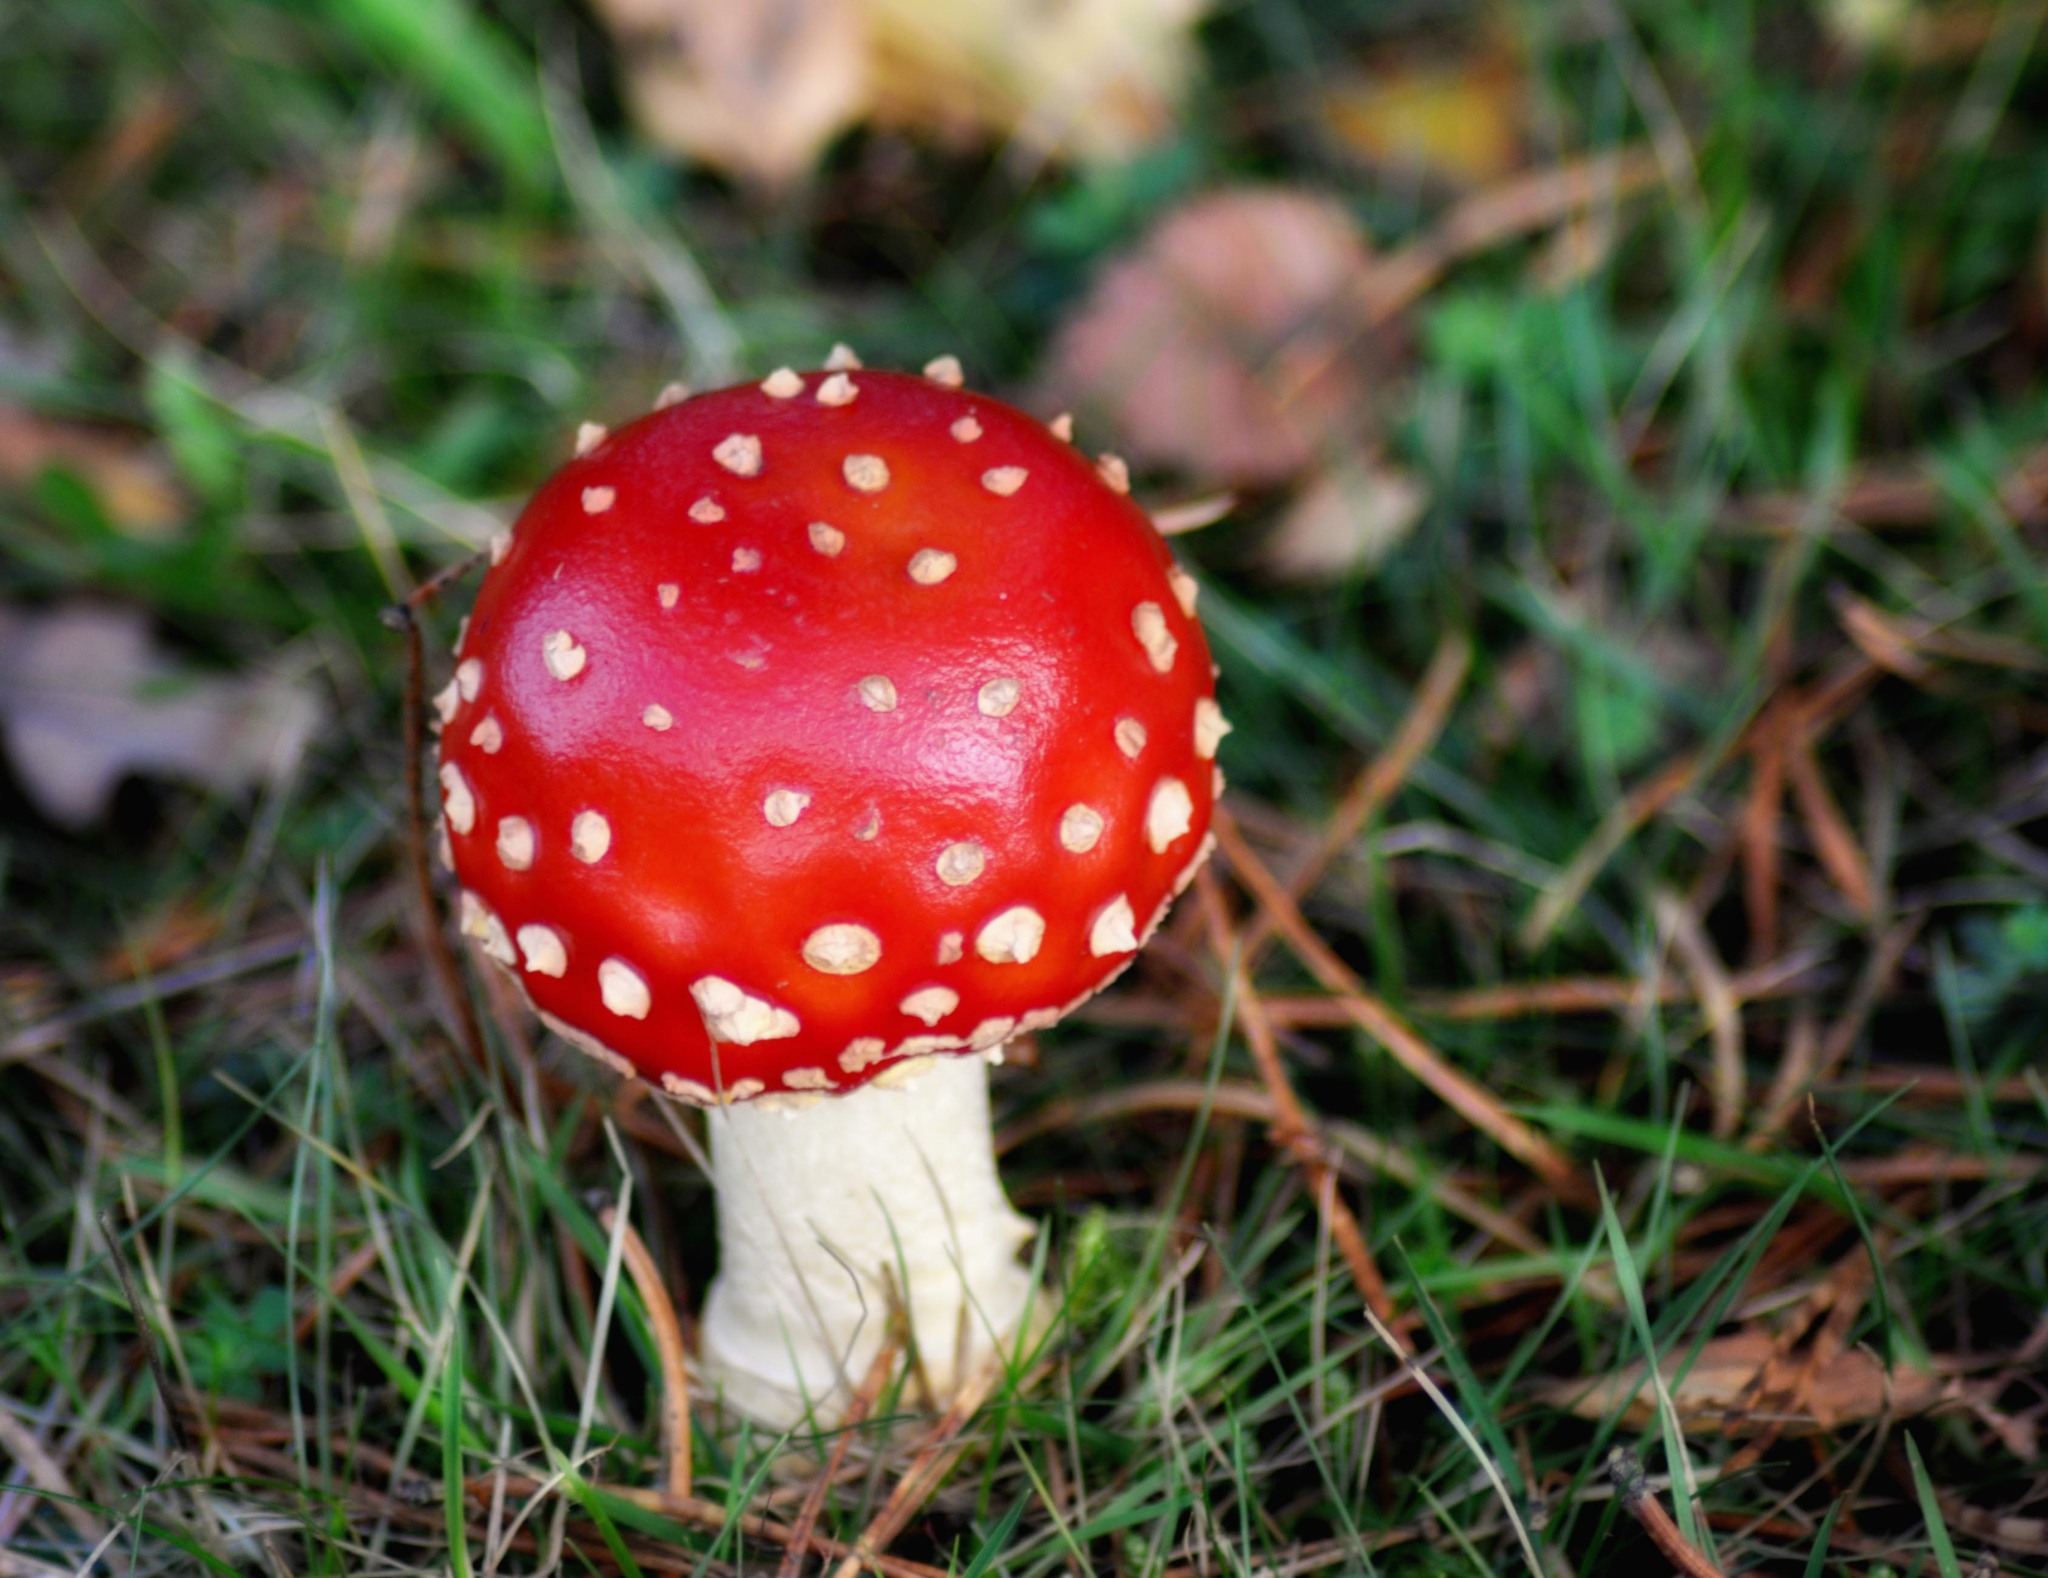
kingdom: Fungi
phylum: Basidiomycota
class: Agaricomycetes
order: Agaricales
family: Amanitaceae
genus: Amanita
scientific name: Amanita muscaria
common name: Fly agaric
